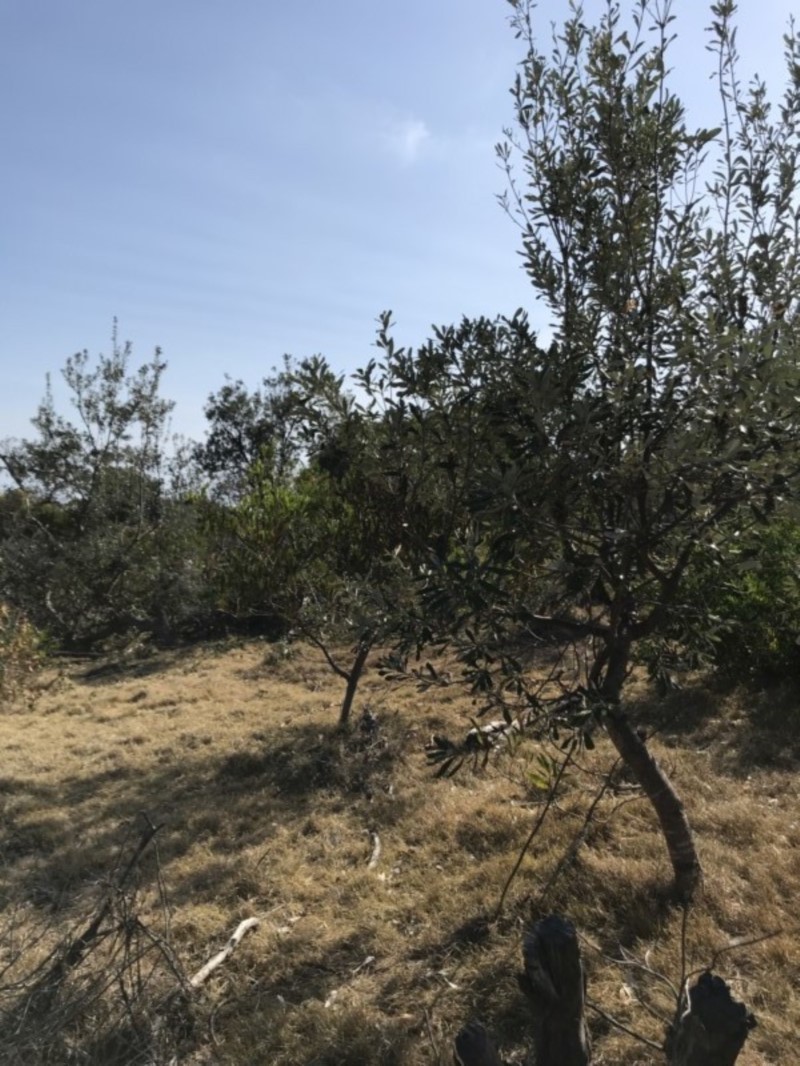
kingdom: Plantae
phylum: Tracheophyta
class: Magnoliopsida
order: Proteales
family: Proteaceae
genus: Banksia
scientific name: Banksia integrifolia
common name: White-honeysuckle
